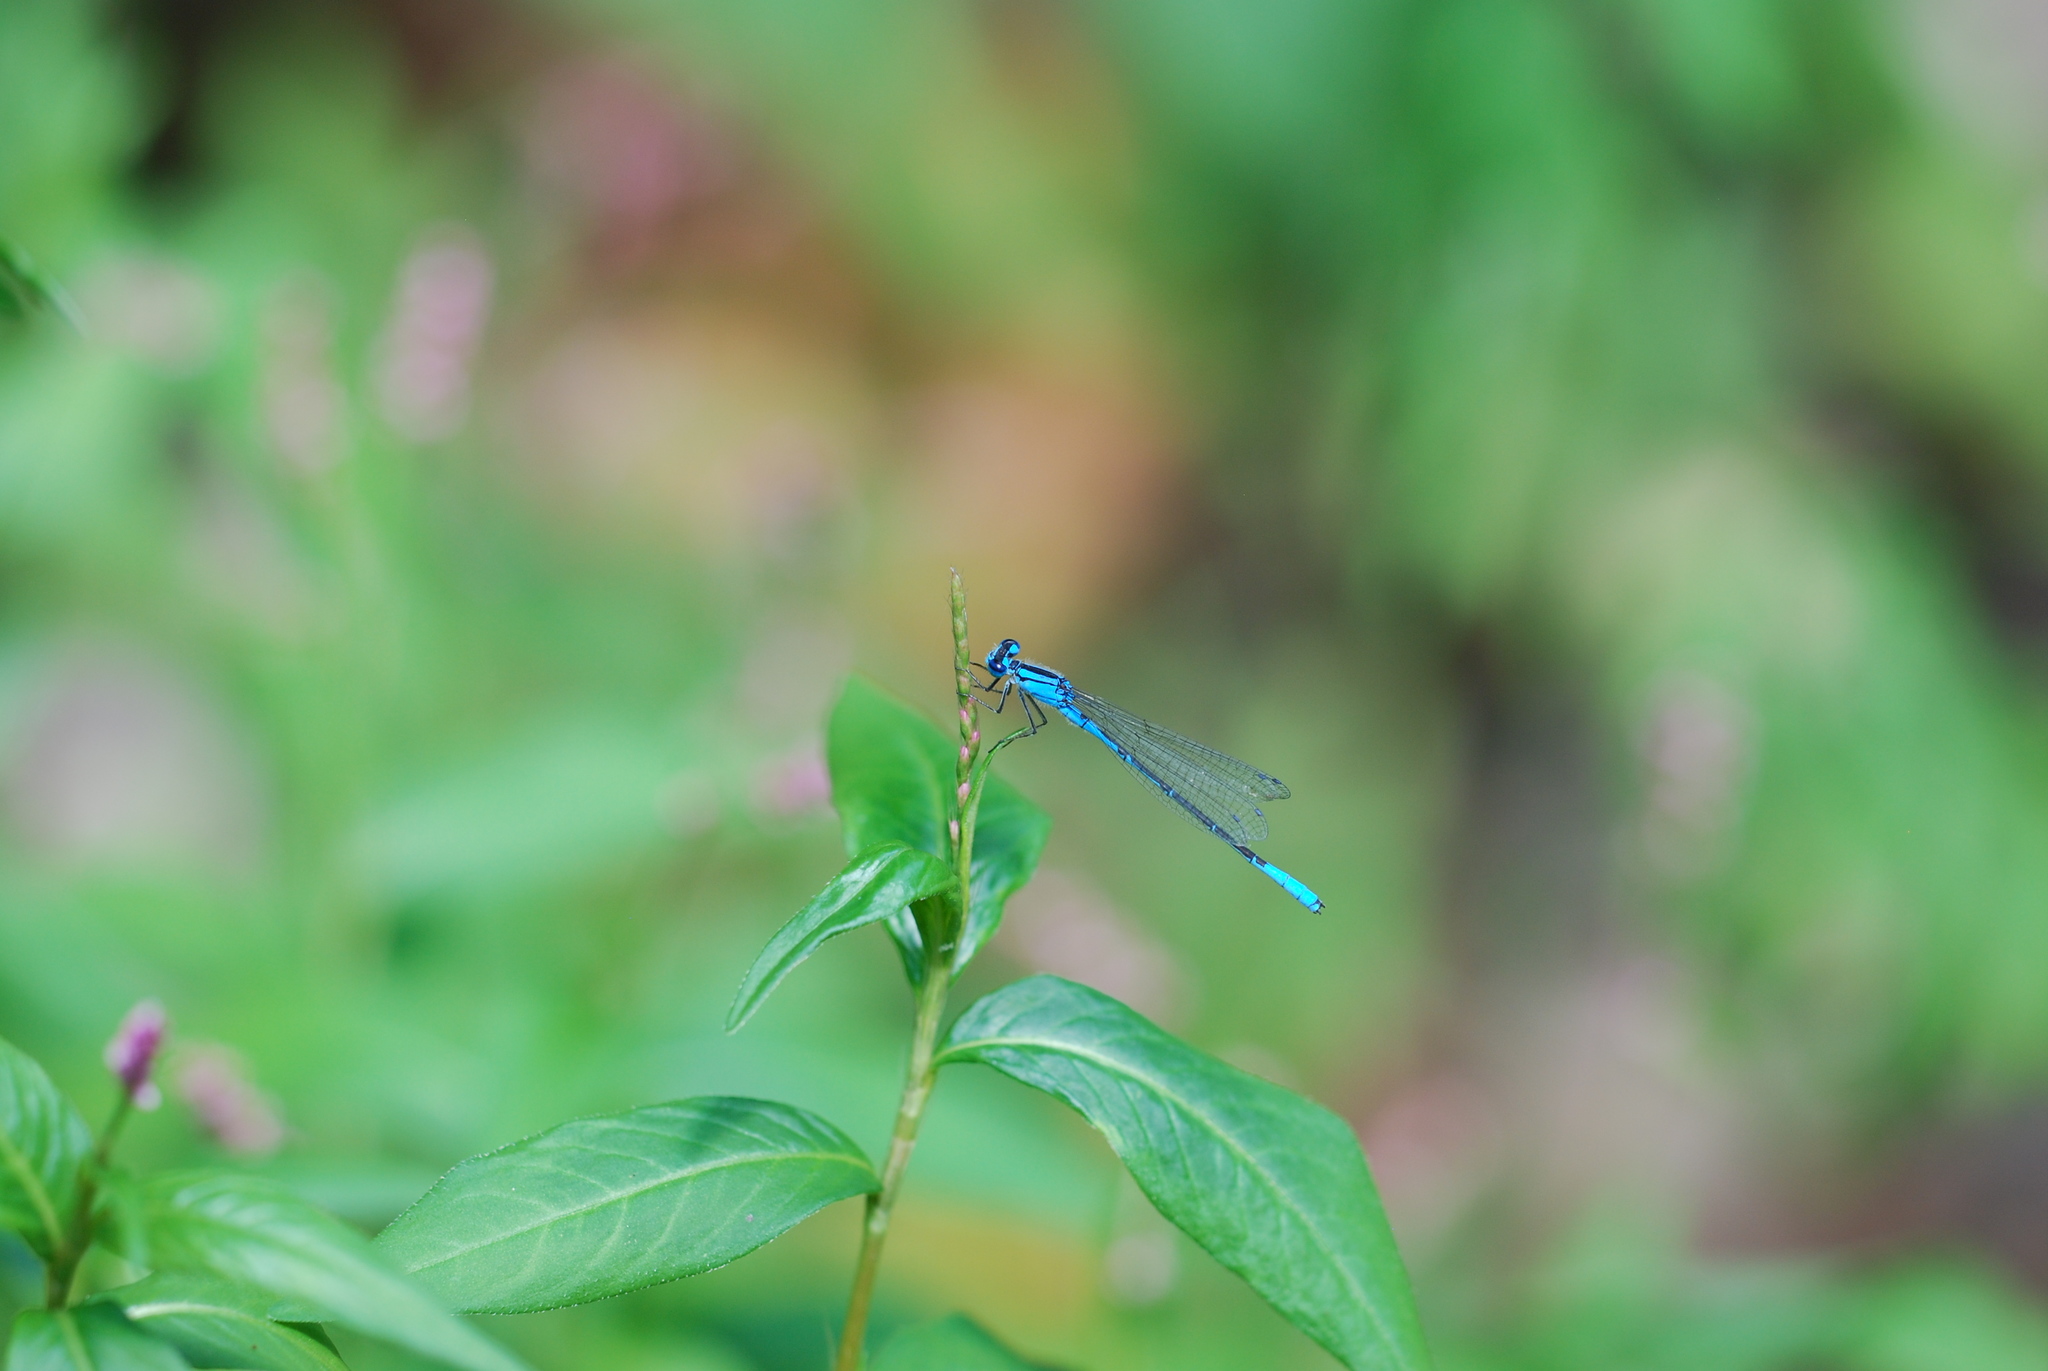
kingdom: Animalia
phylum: Arthropoda
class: Insecta
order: Odonata
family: Coenagrionidae
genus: Enallagma
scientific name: Enallagma aspersum
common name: Azure bluet
